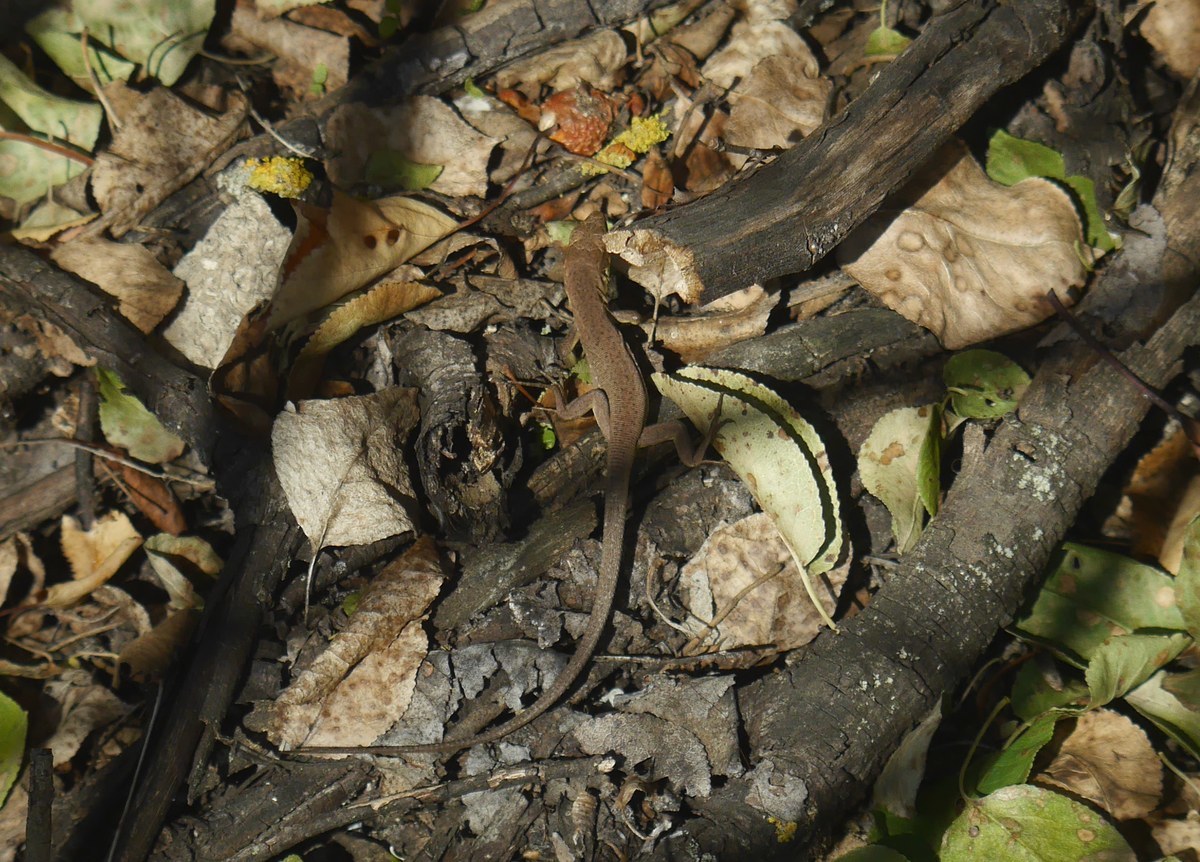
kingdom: Animalia
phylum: Chordata
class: Squamata
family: Lacertidae
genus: Lacerta
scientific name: Lacerta viridis
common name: European green lizard
